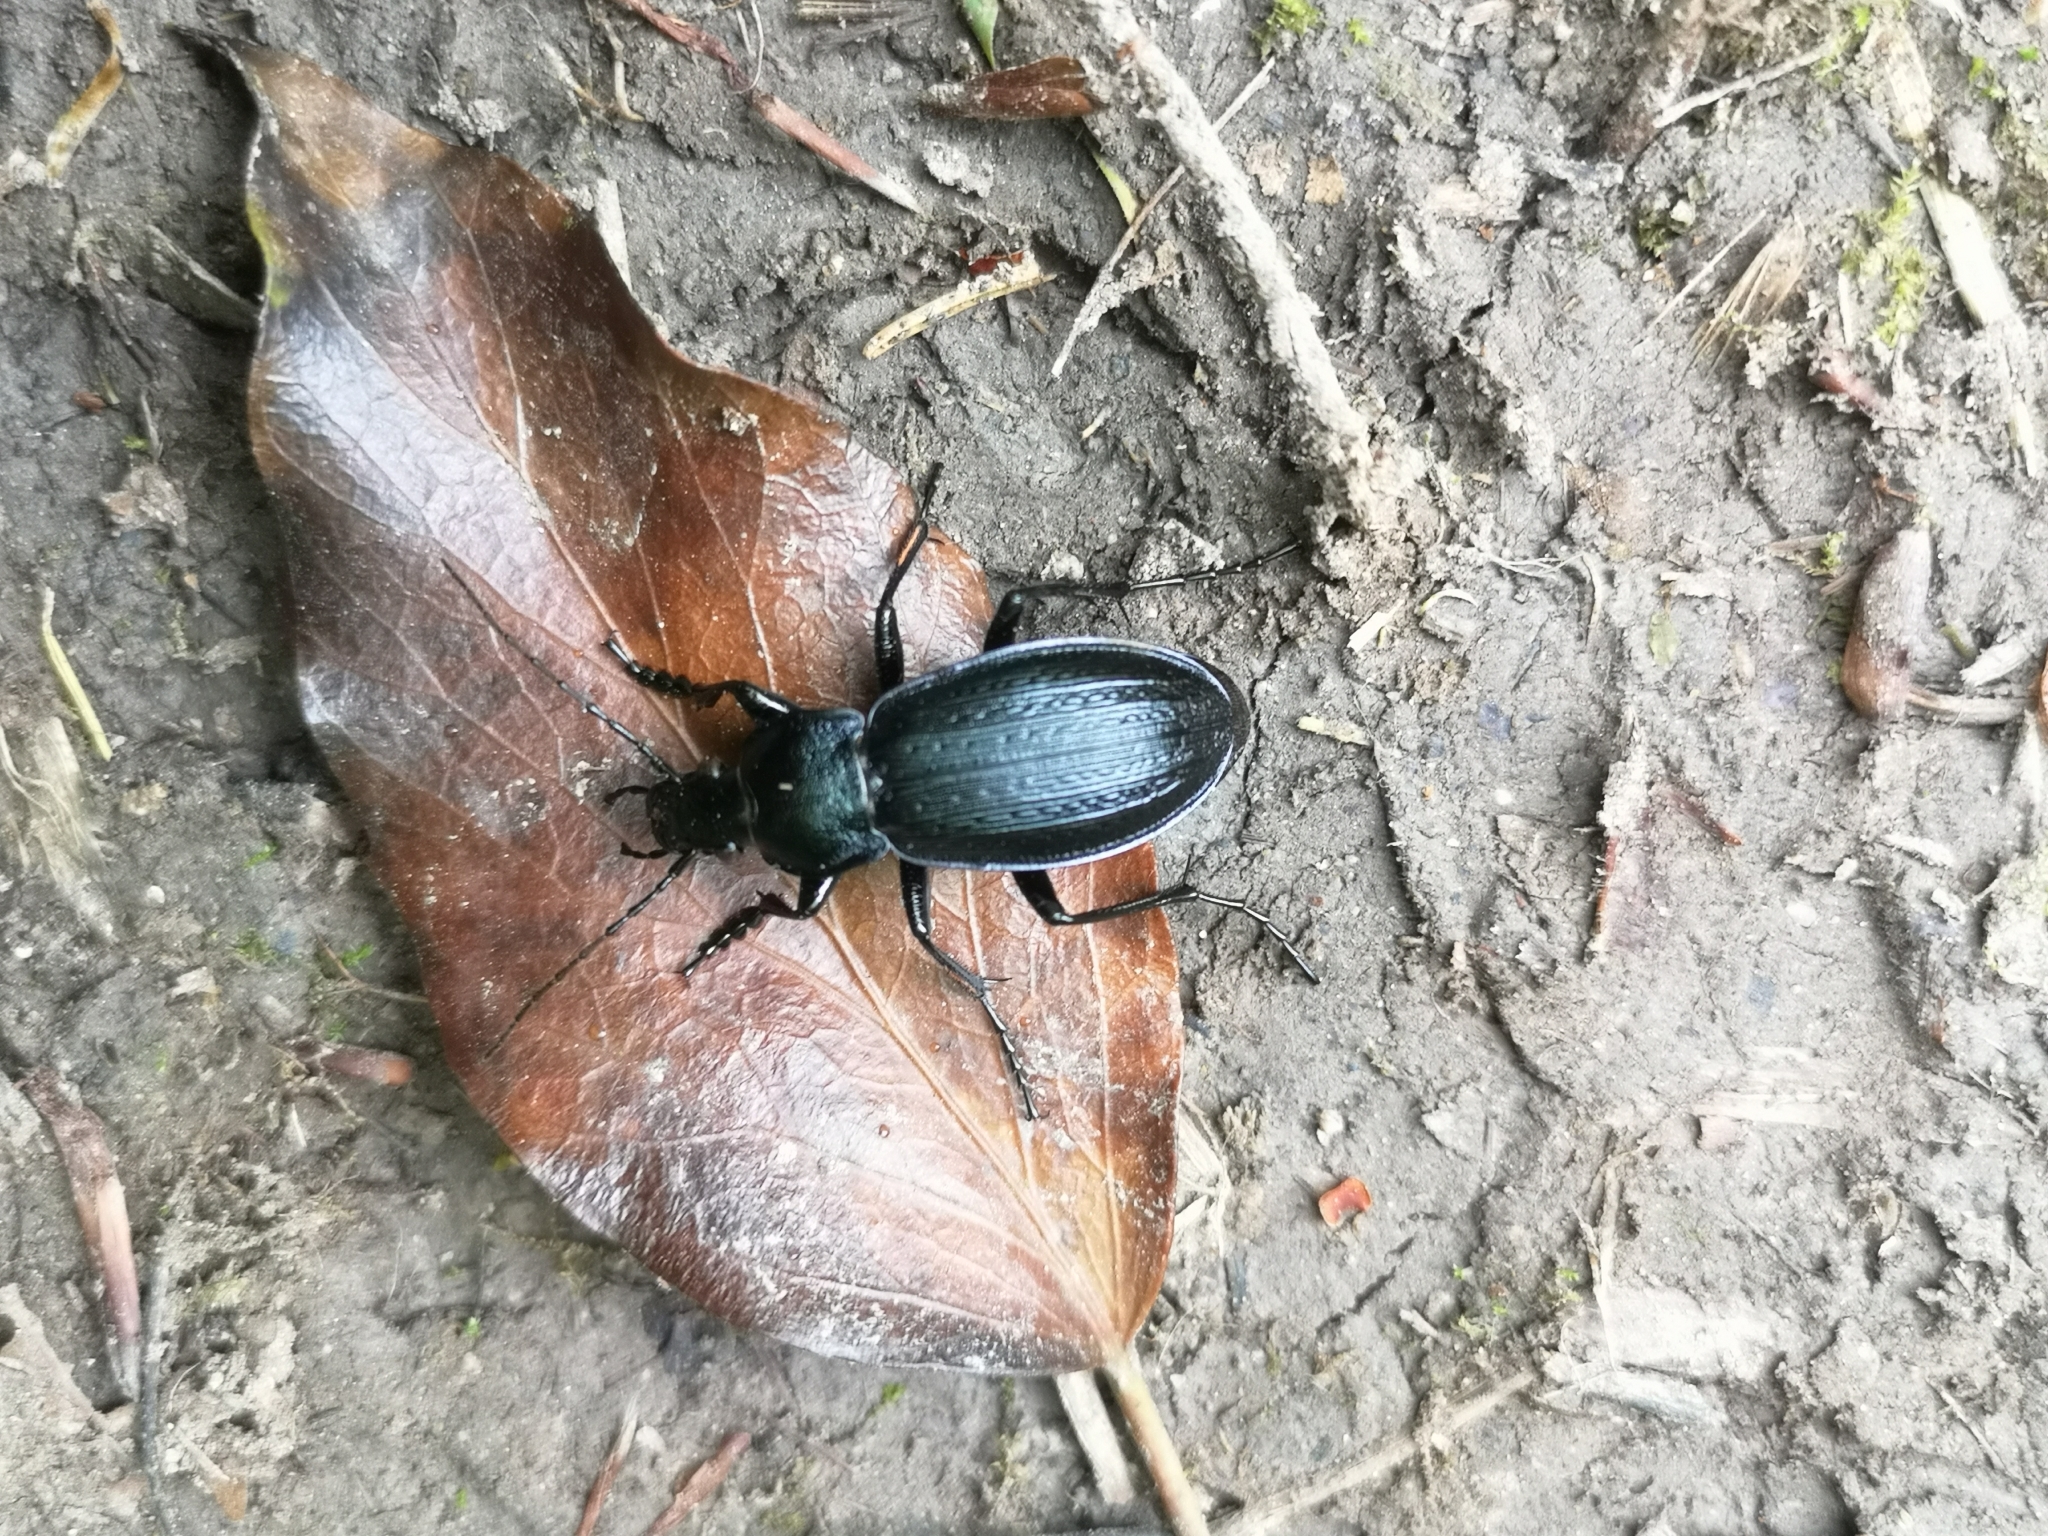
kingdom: Animalia
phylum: Arthropoda
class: Insecta
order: Coleoptera
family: Carabidae
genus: Carabus
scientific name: Carabus monilis
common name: Necklace ground beetle
